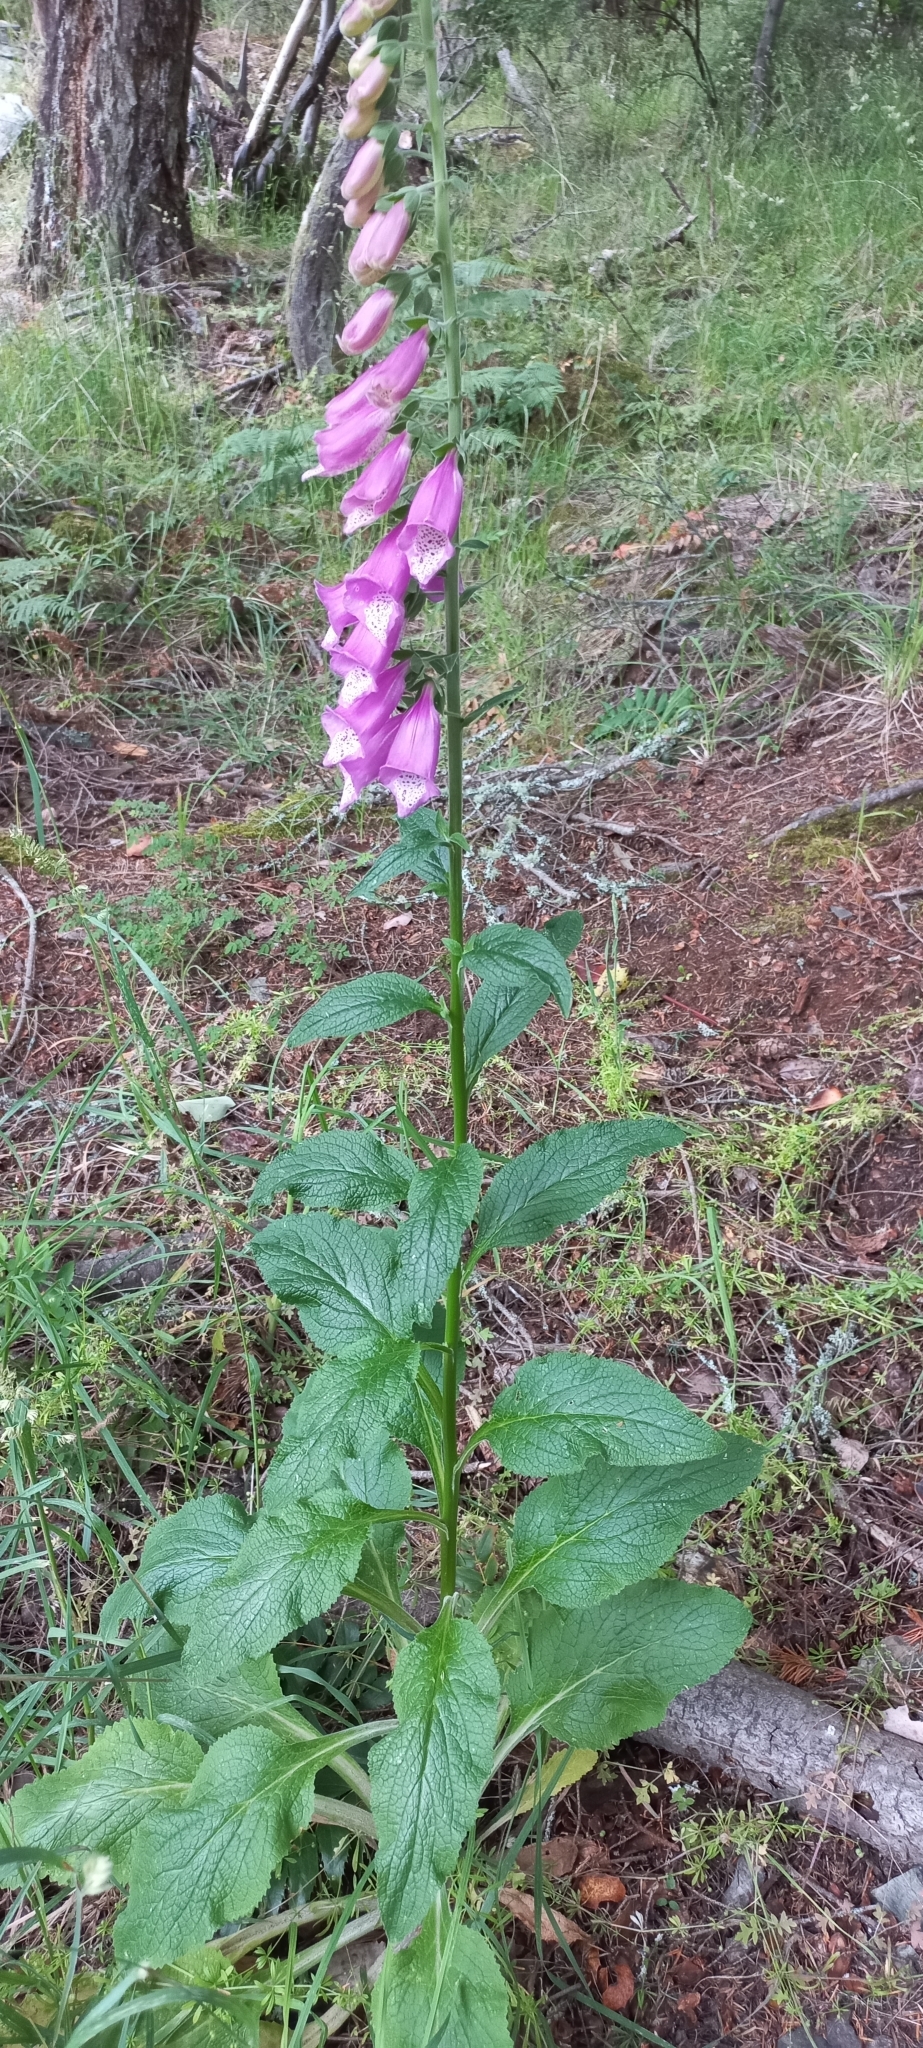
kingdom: Plantae
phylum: Tracheophyta
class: Magnoliopsida
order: Lamiales
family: Plantaginaceae
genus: Digitalis
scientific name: Digitalis purpurea
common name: Foxglove
